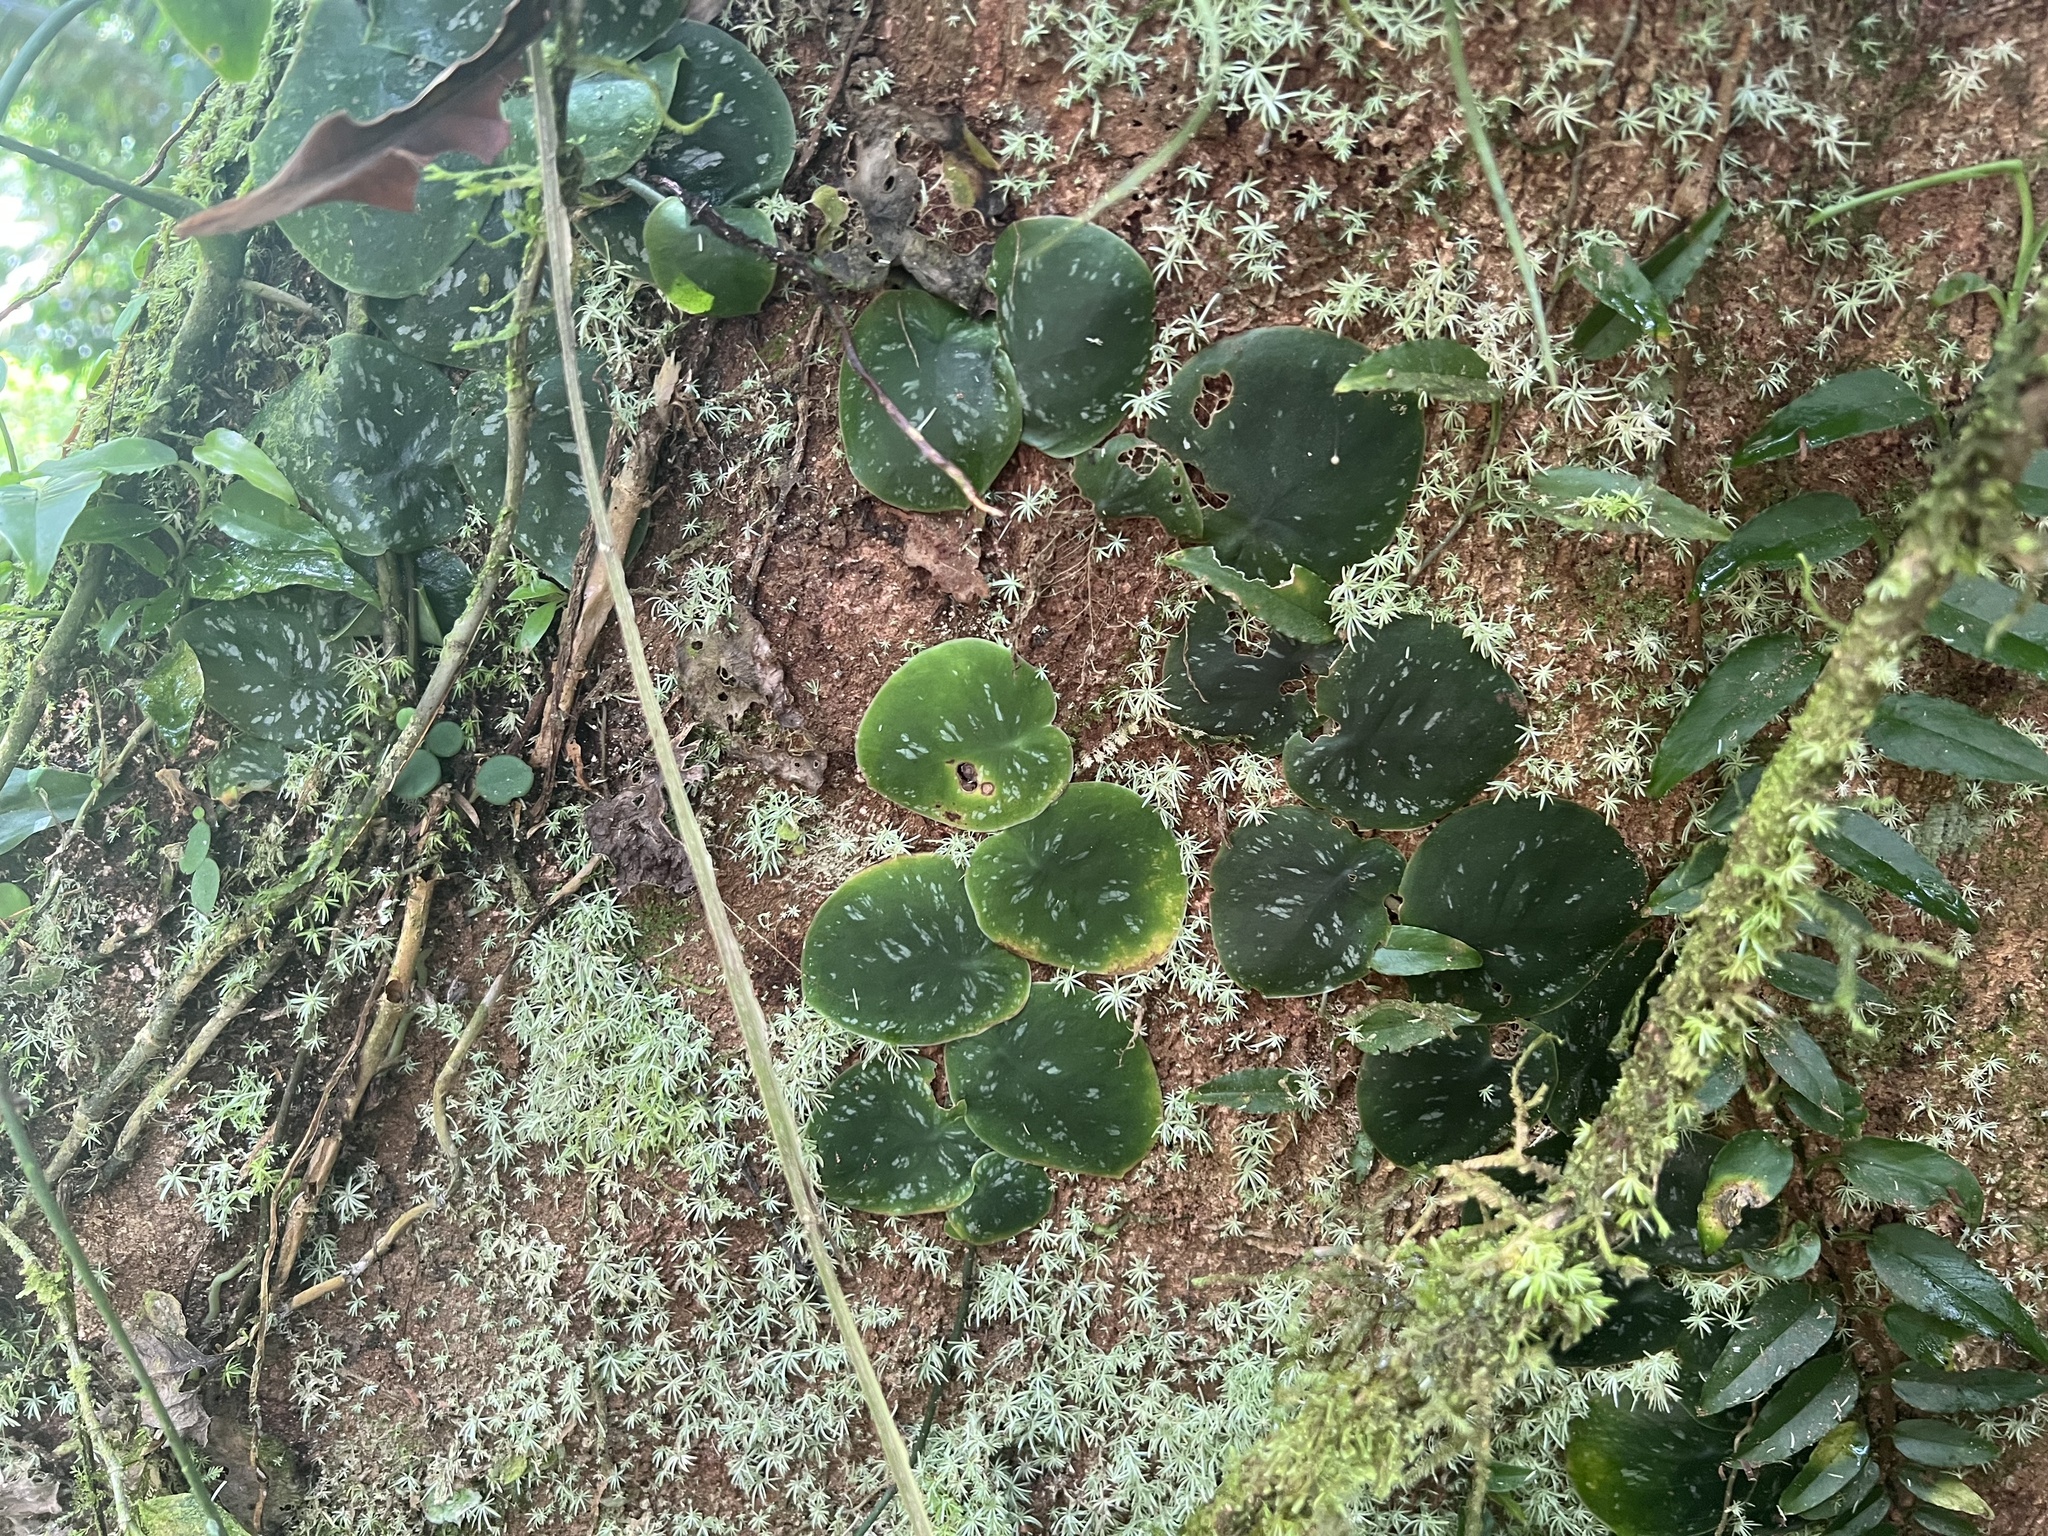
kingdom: Plantae
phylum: Tracheophyta
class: Liliopsida
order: Alismatales
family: Araceae
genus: Monstera
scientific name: Monstera tuberculata
